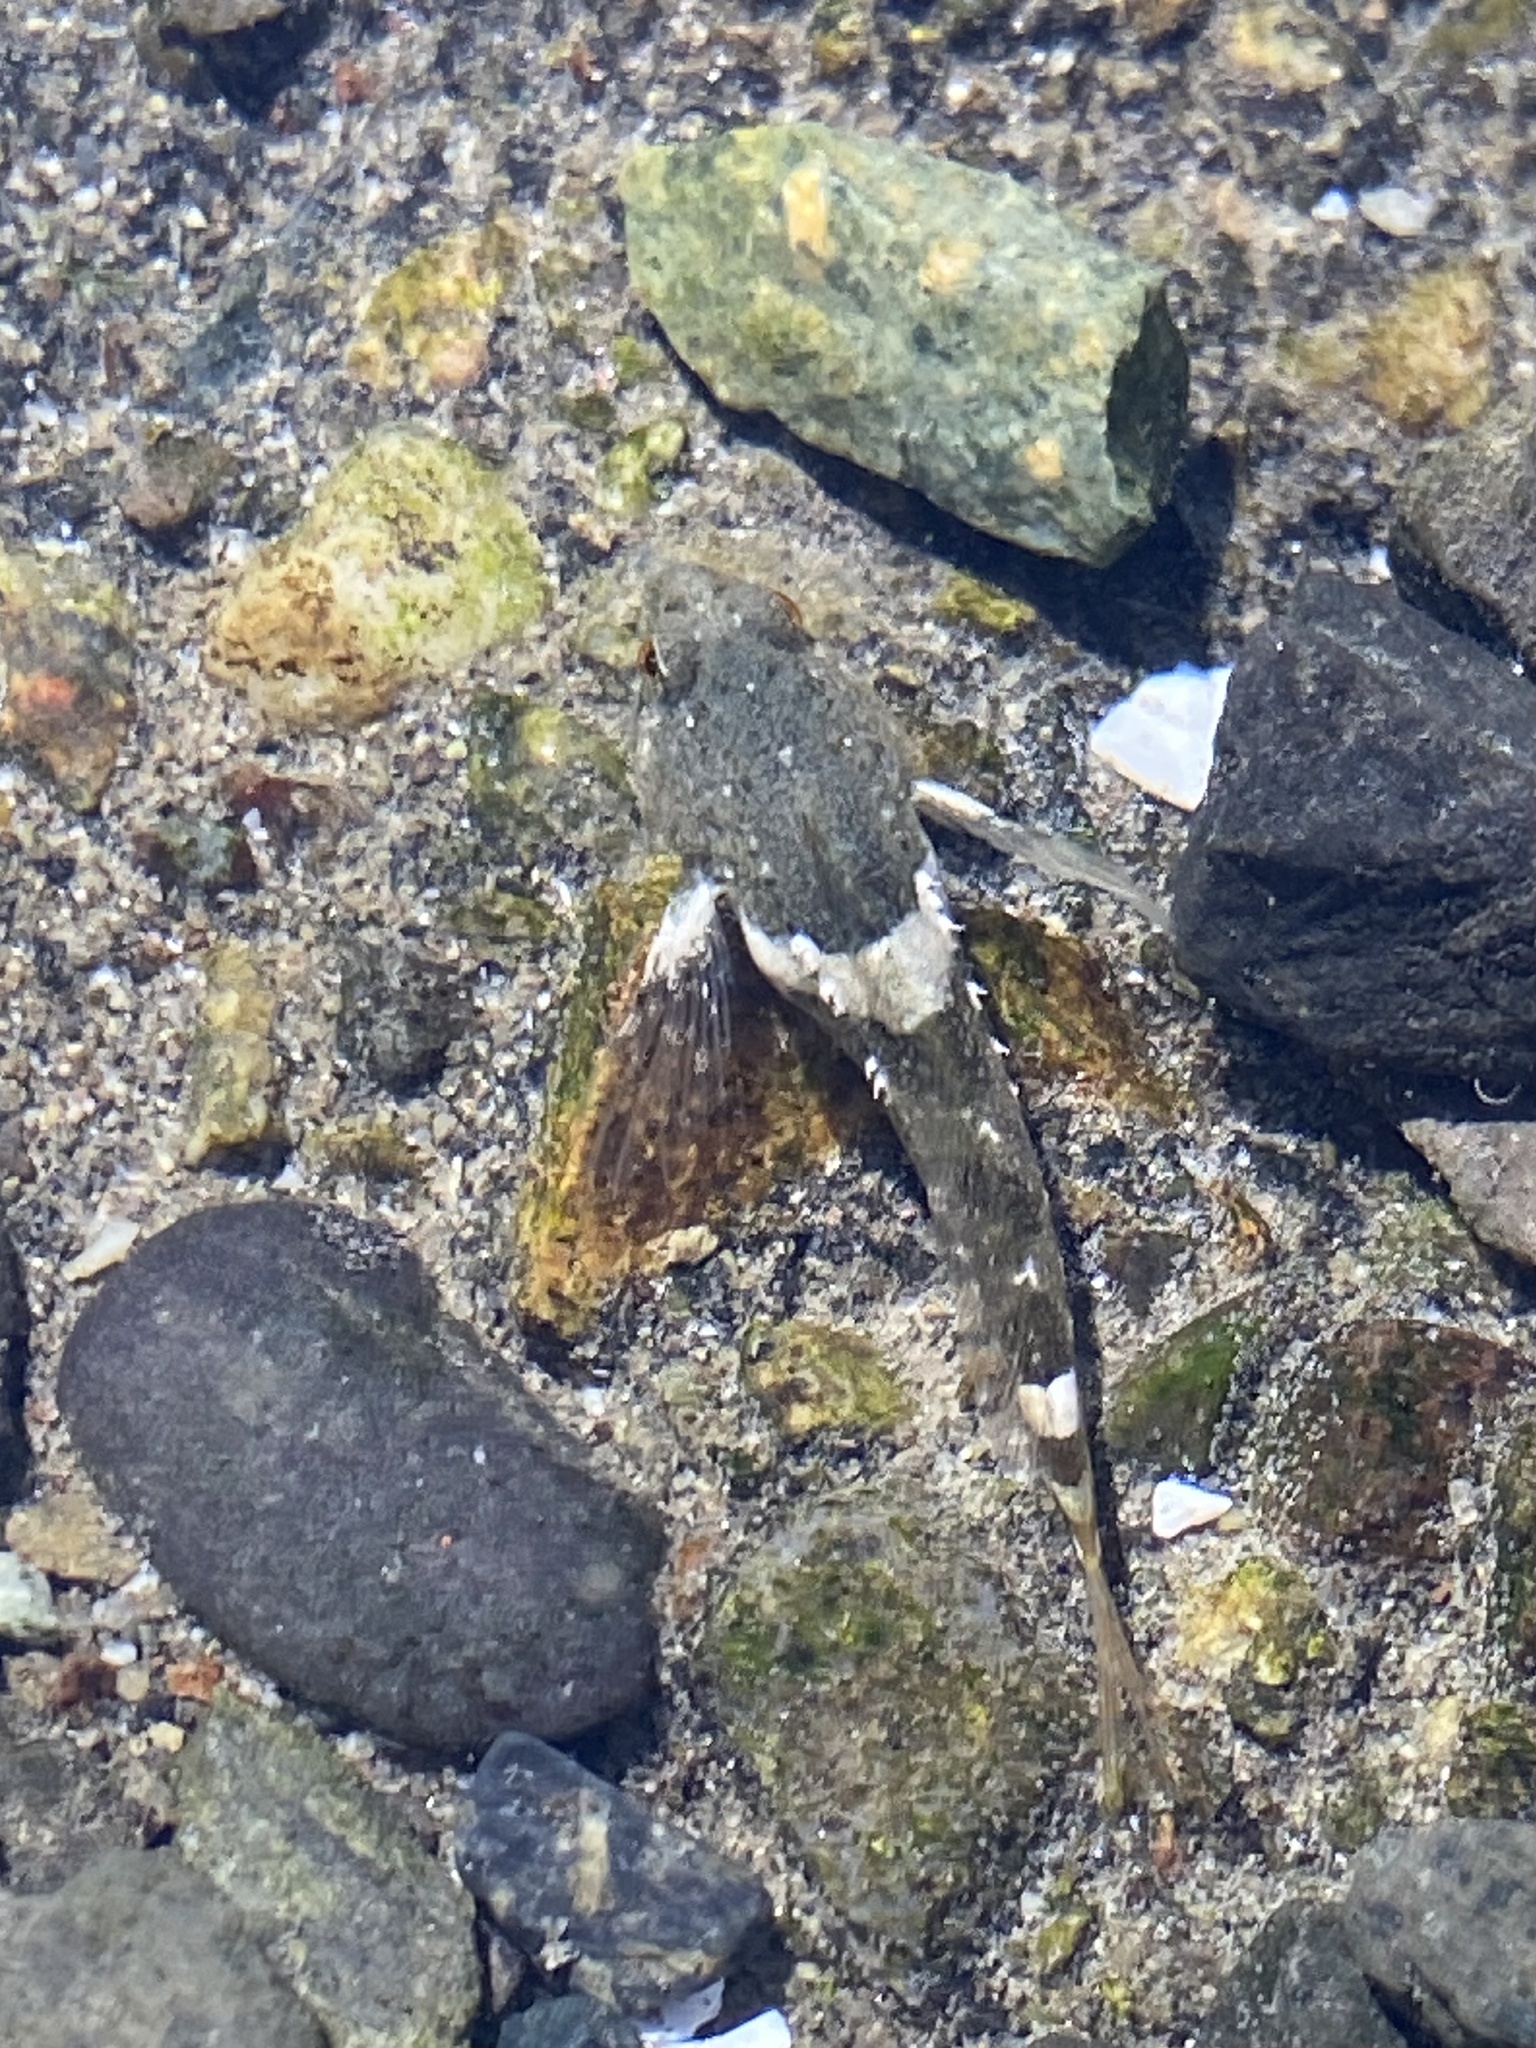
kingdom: Animalia
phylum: Chordata
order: Scorpaeniformes
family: Cottidae
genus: Oligocottus
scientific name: Oligocottus maculosus
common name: Tidepool sculpin
